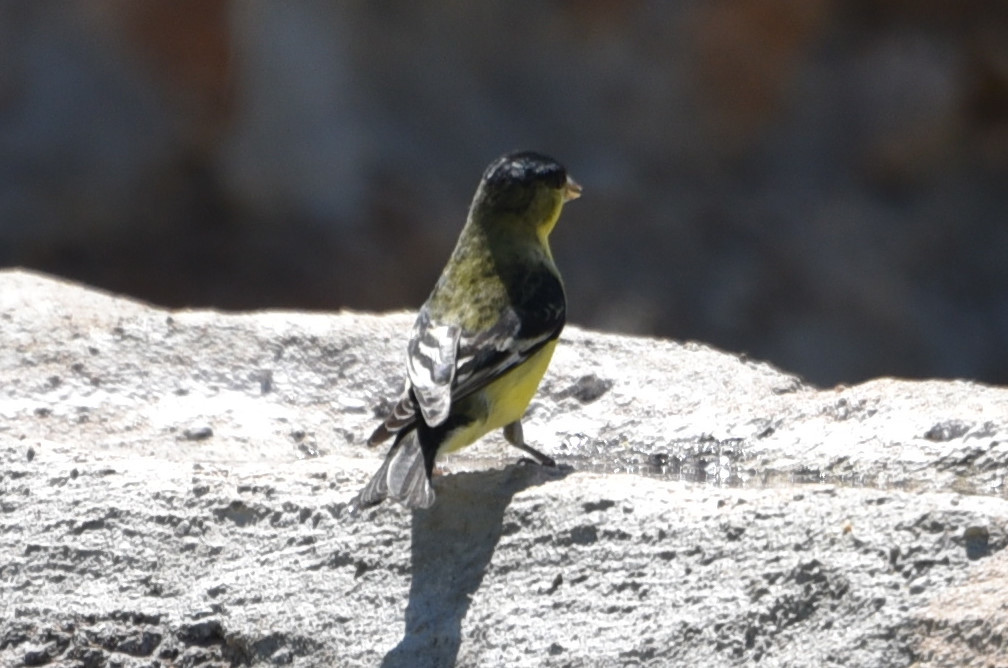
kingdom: Animalia
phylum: Chordata
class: Aves
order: Passeriformes
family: Fringillidae
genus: Spinus
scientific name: Spinus psaltria
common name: Lesser goldfinch
